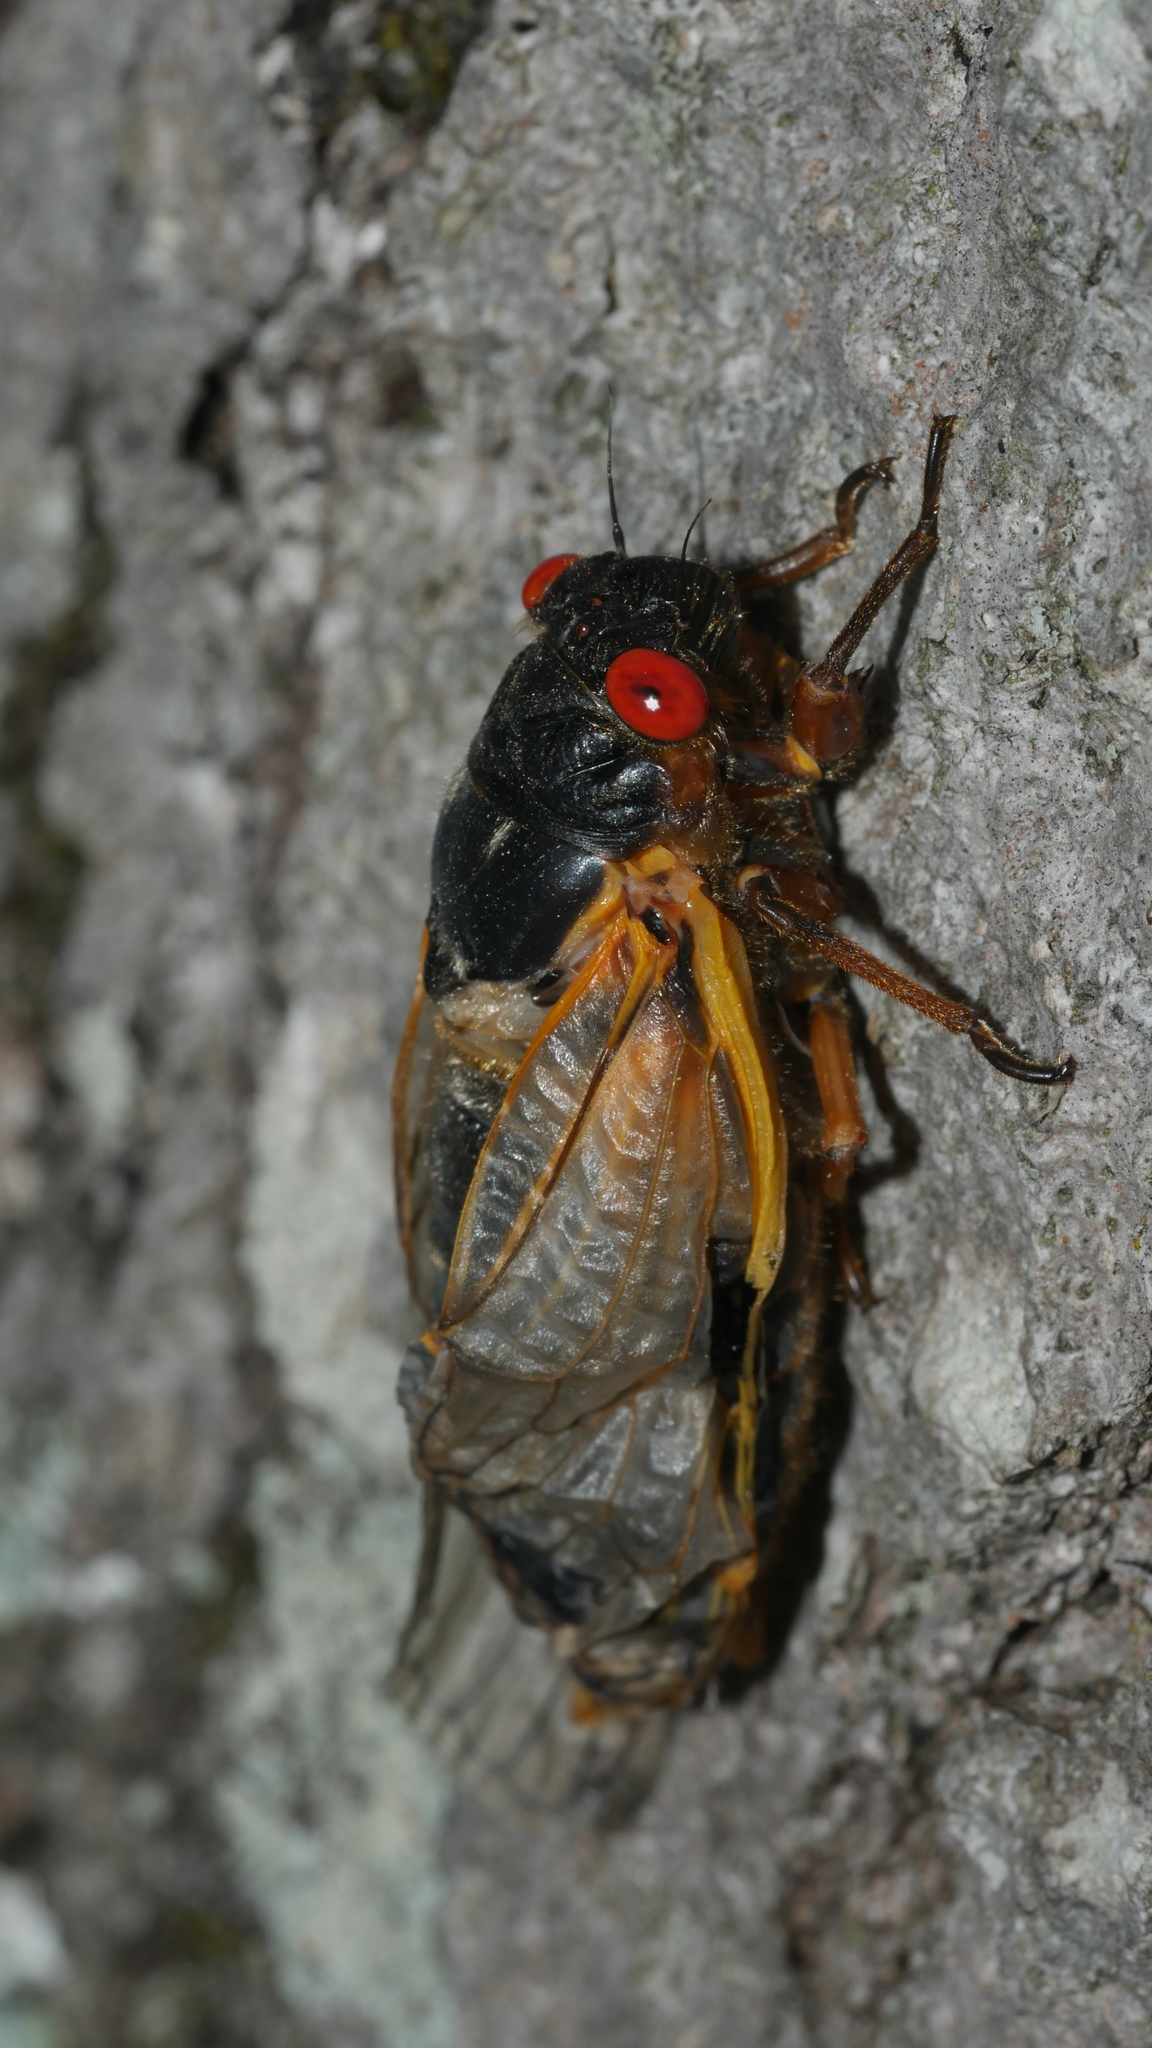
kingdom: Animalia
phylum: Arthropoda
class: Insecta
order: Hemiptera
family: Cicadidae
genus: Magicicada
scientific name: Magicicada septendecim
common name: Periodical cicada
